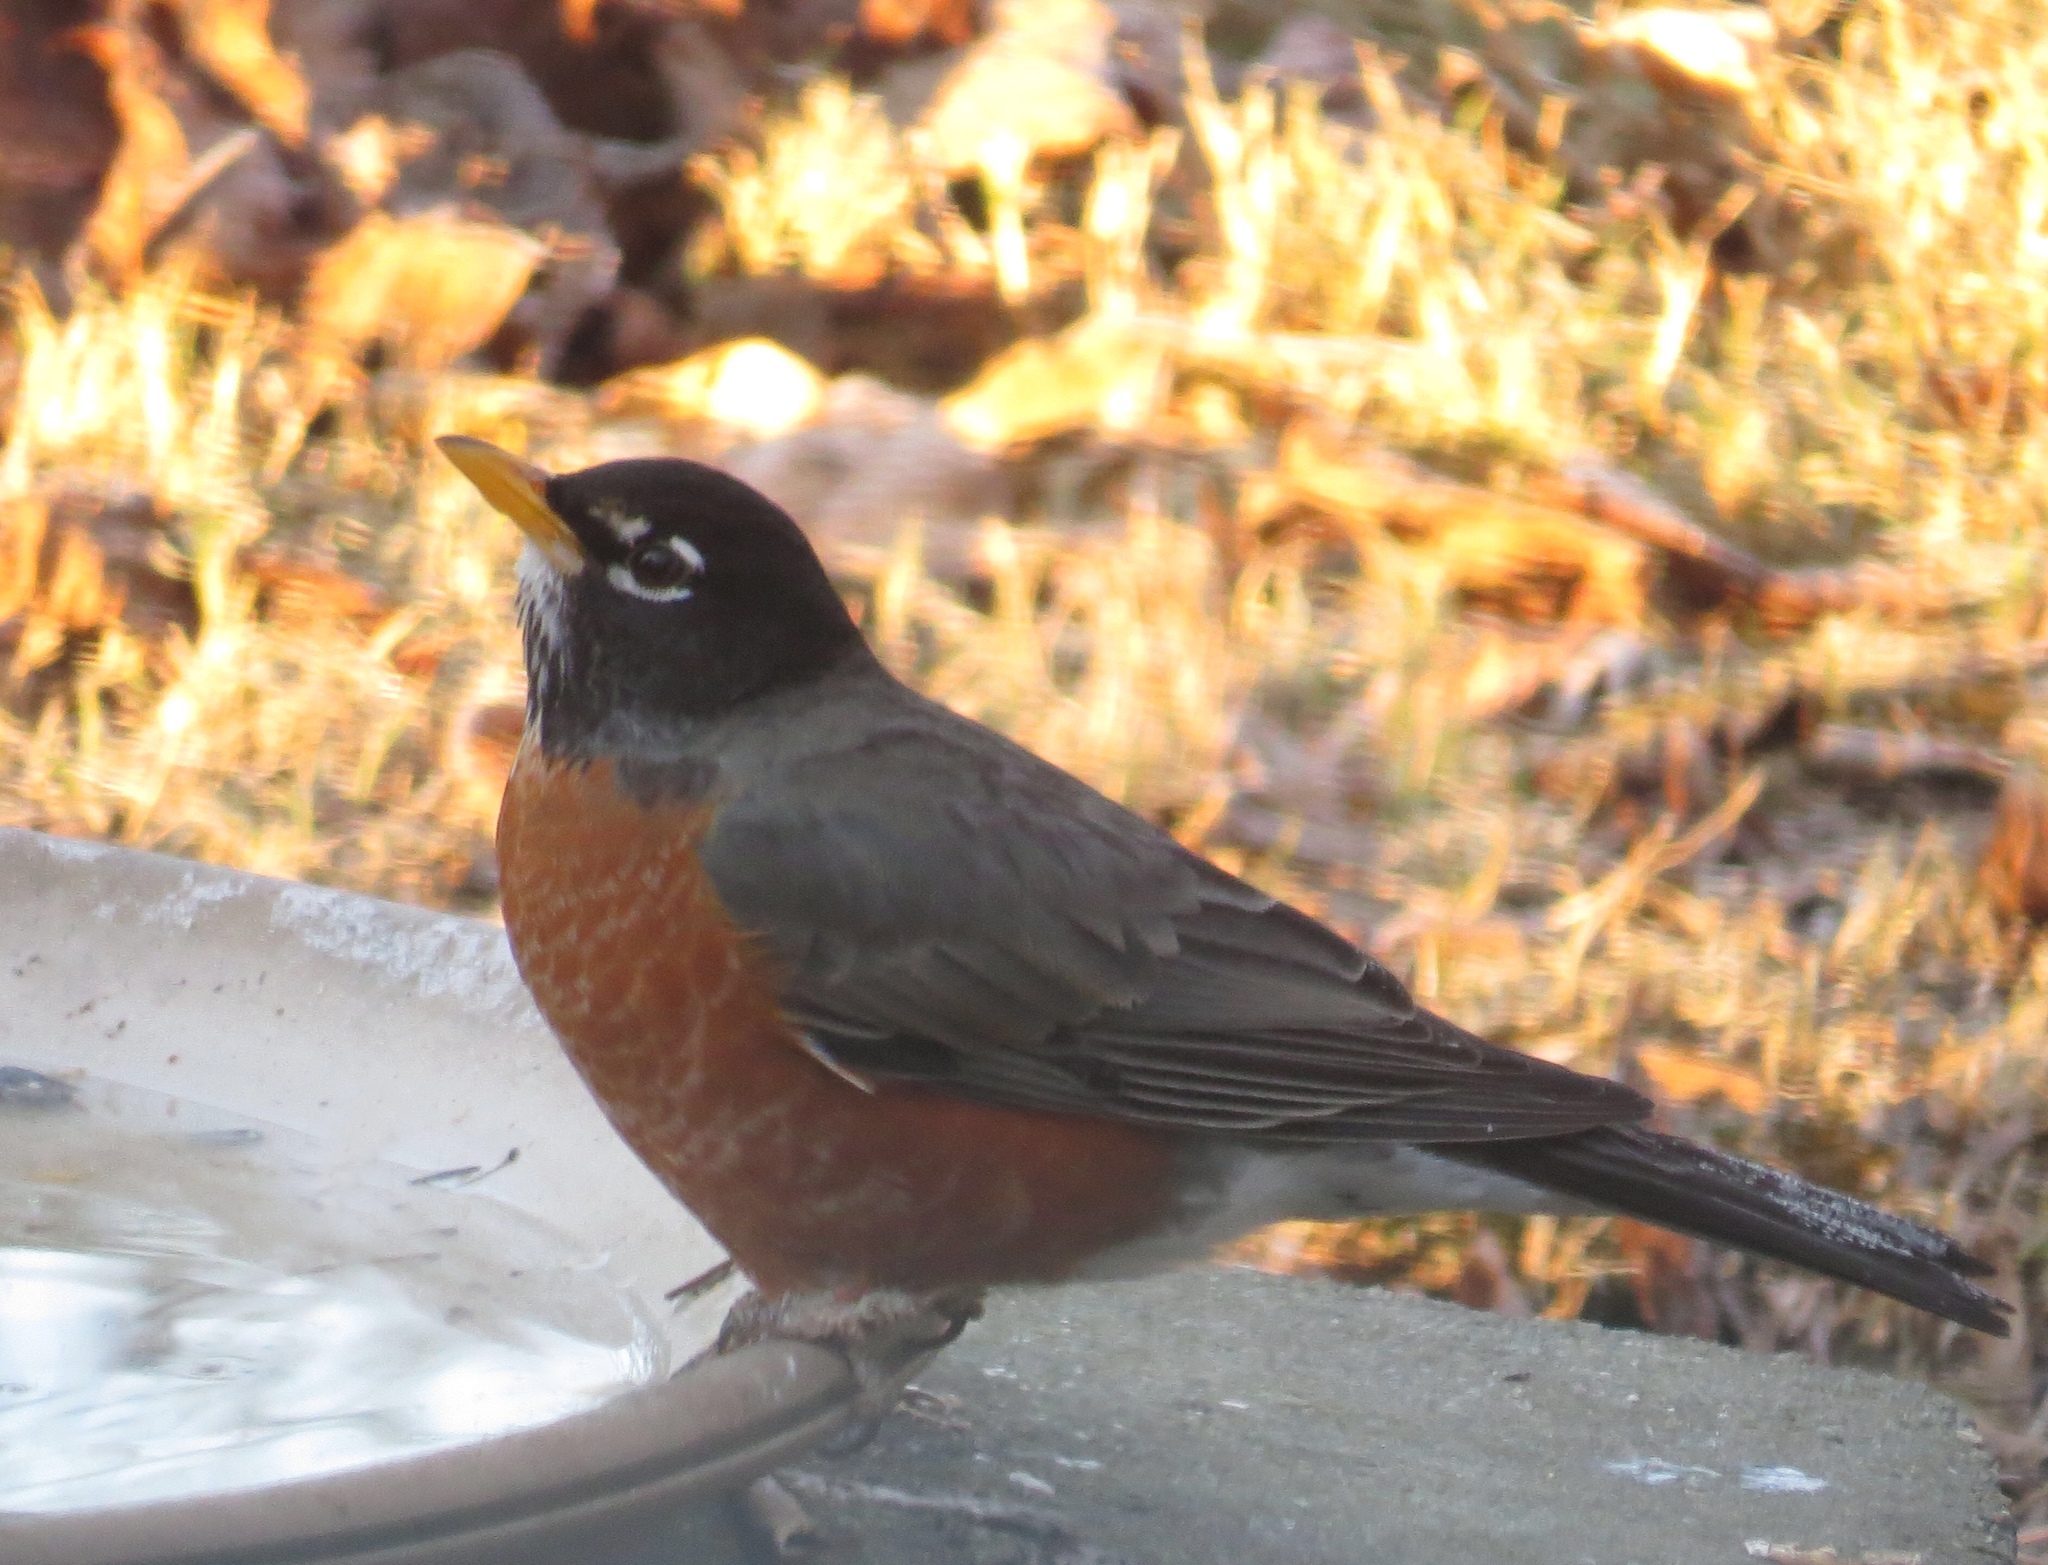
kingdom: Animalia
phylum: Chordata
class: Aves
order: Passeriformes
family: Turdidae
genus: Turdus
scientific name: Turdus migratorius
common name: American robin
